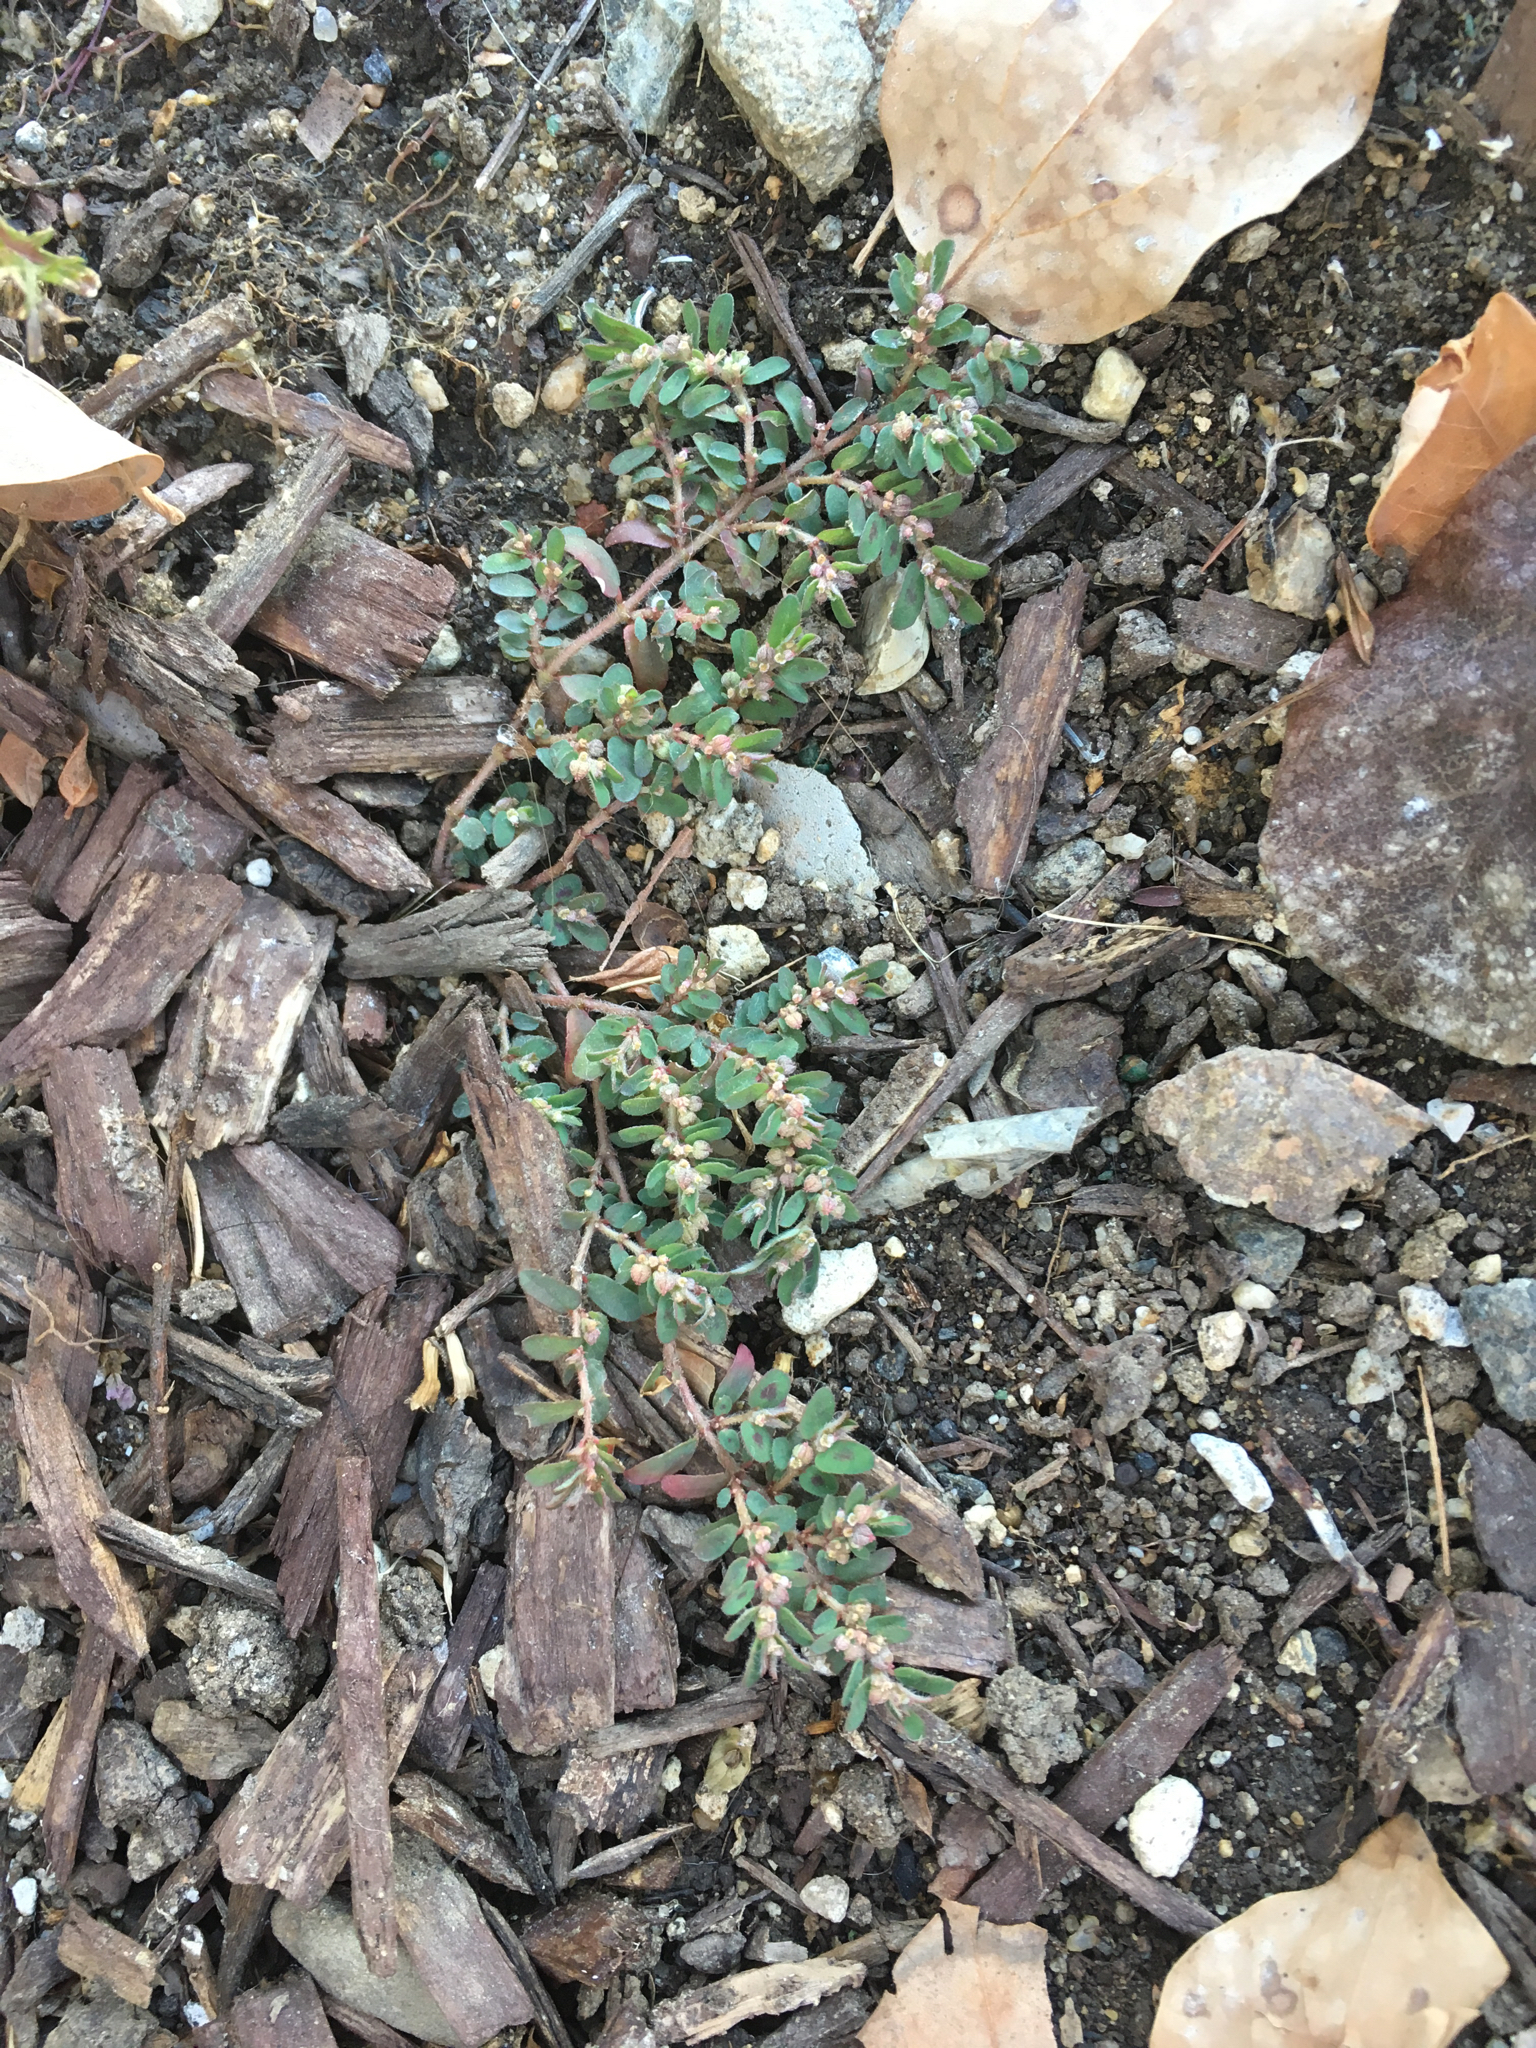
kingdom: Plantae
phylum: Tracheophyta
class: Magnoliopsida
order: Malpighiales
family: Euphorbiaceae
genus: Euphorbia
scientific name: Euphorbia maculata
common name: Spotted spurge
